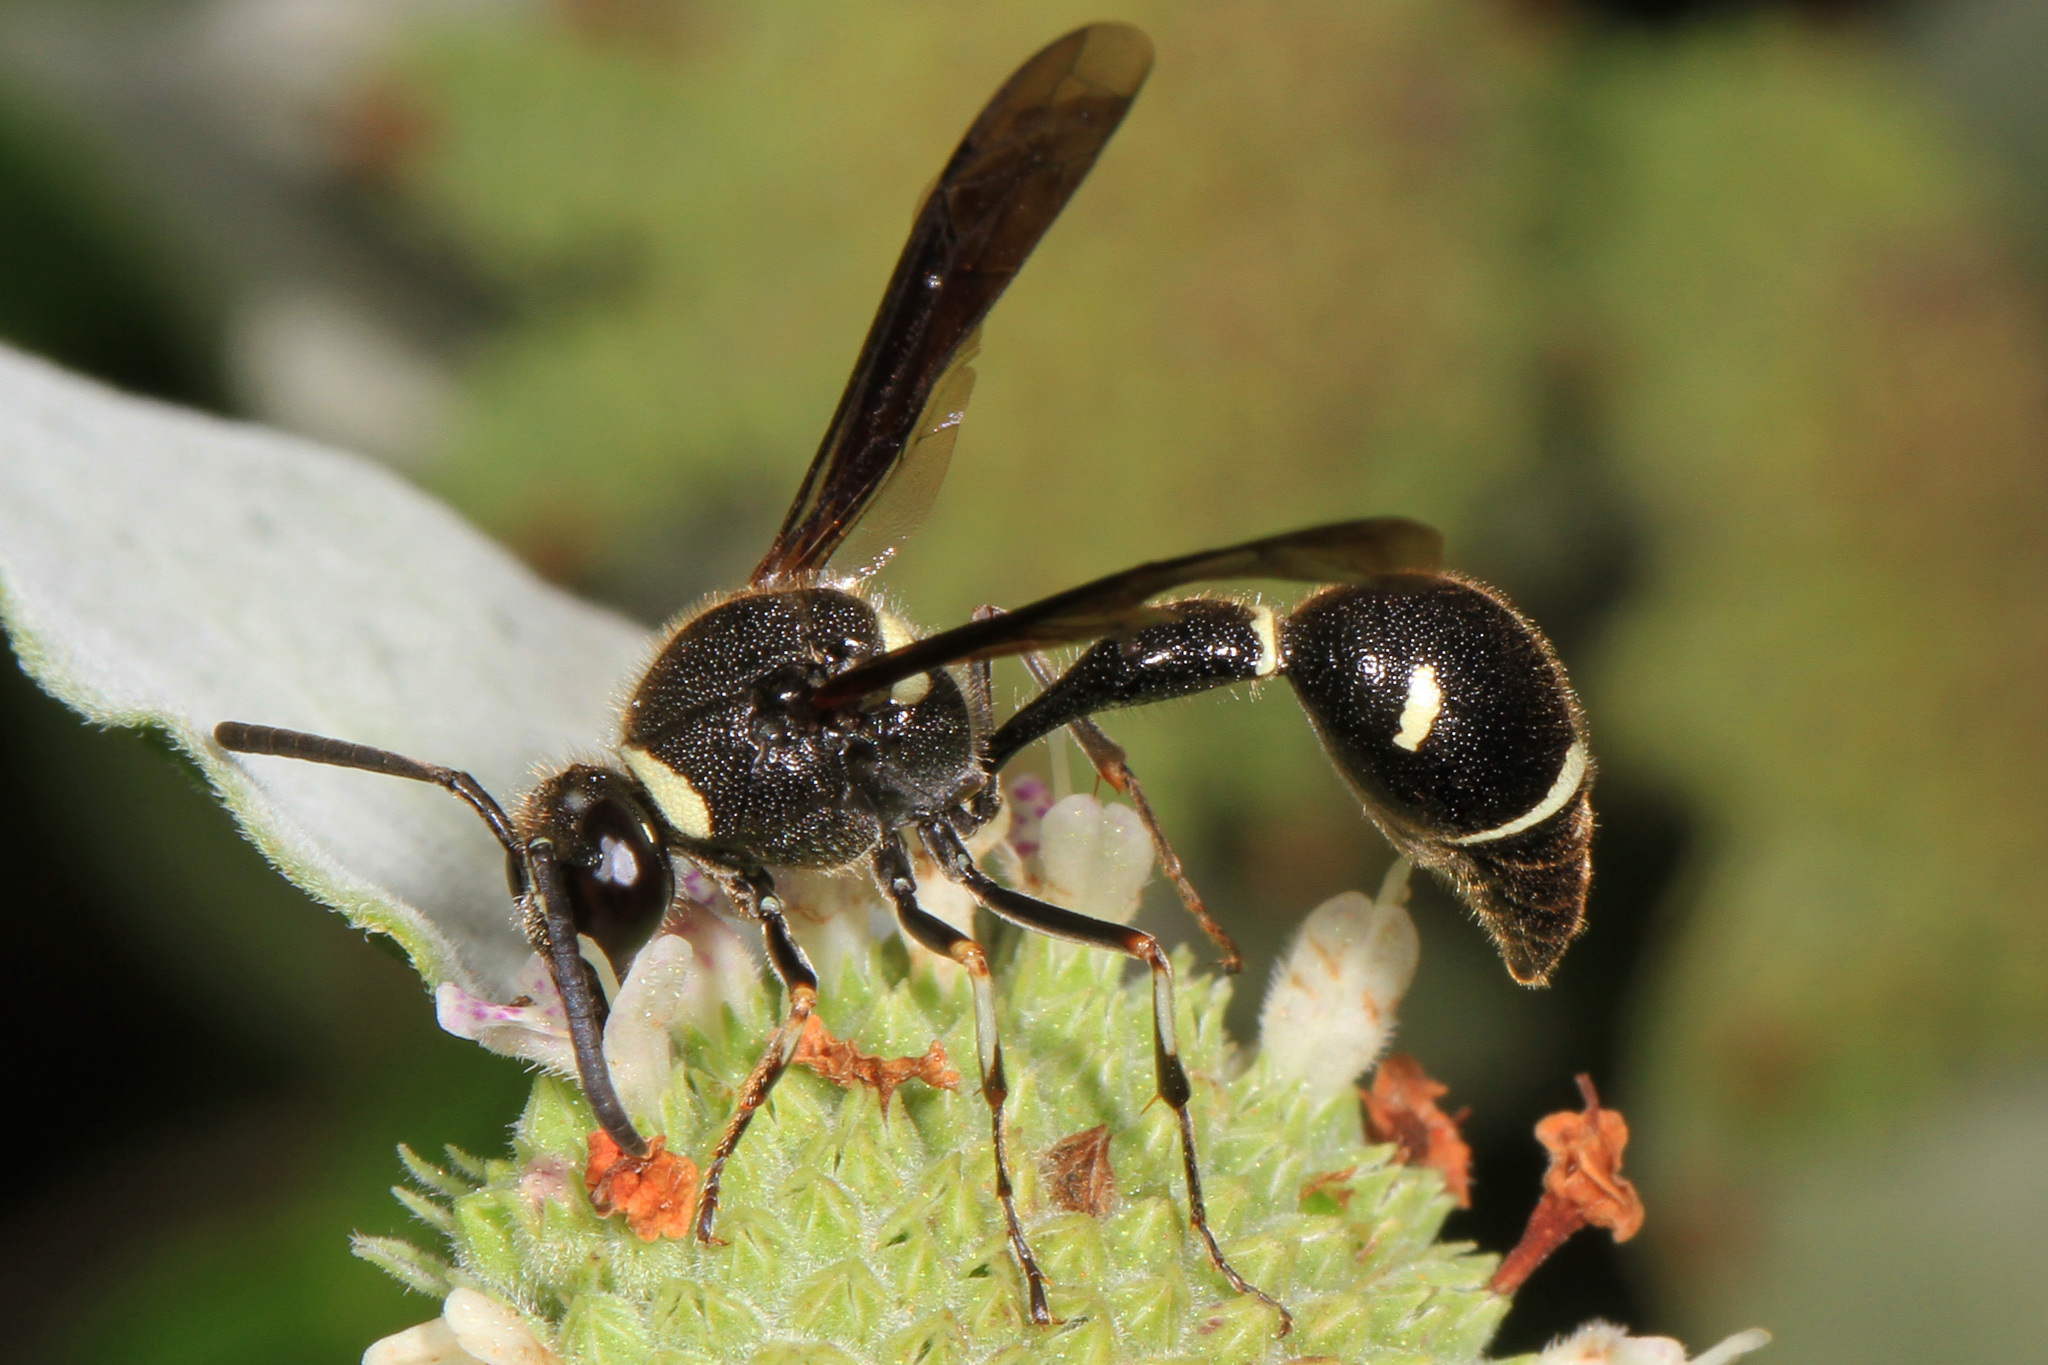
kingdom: Animalia
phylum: Arthropoda
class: Insecta
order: Hymenoptera
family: Vespidae
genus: Eumenes
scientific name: Eumenes fraternus
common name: Fraternal potter wasp
